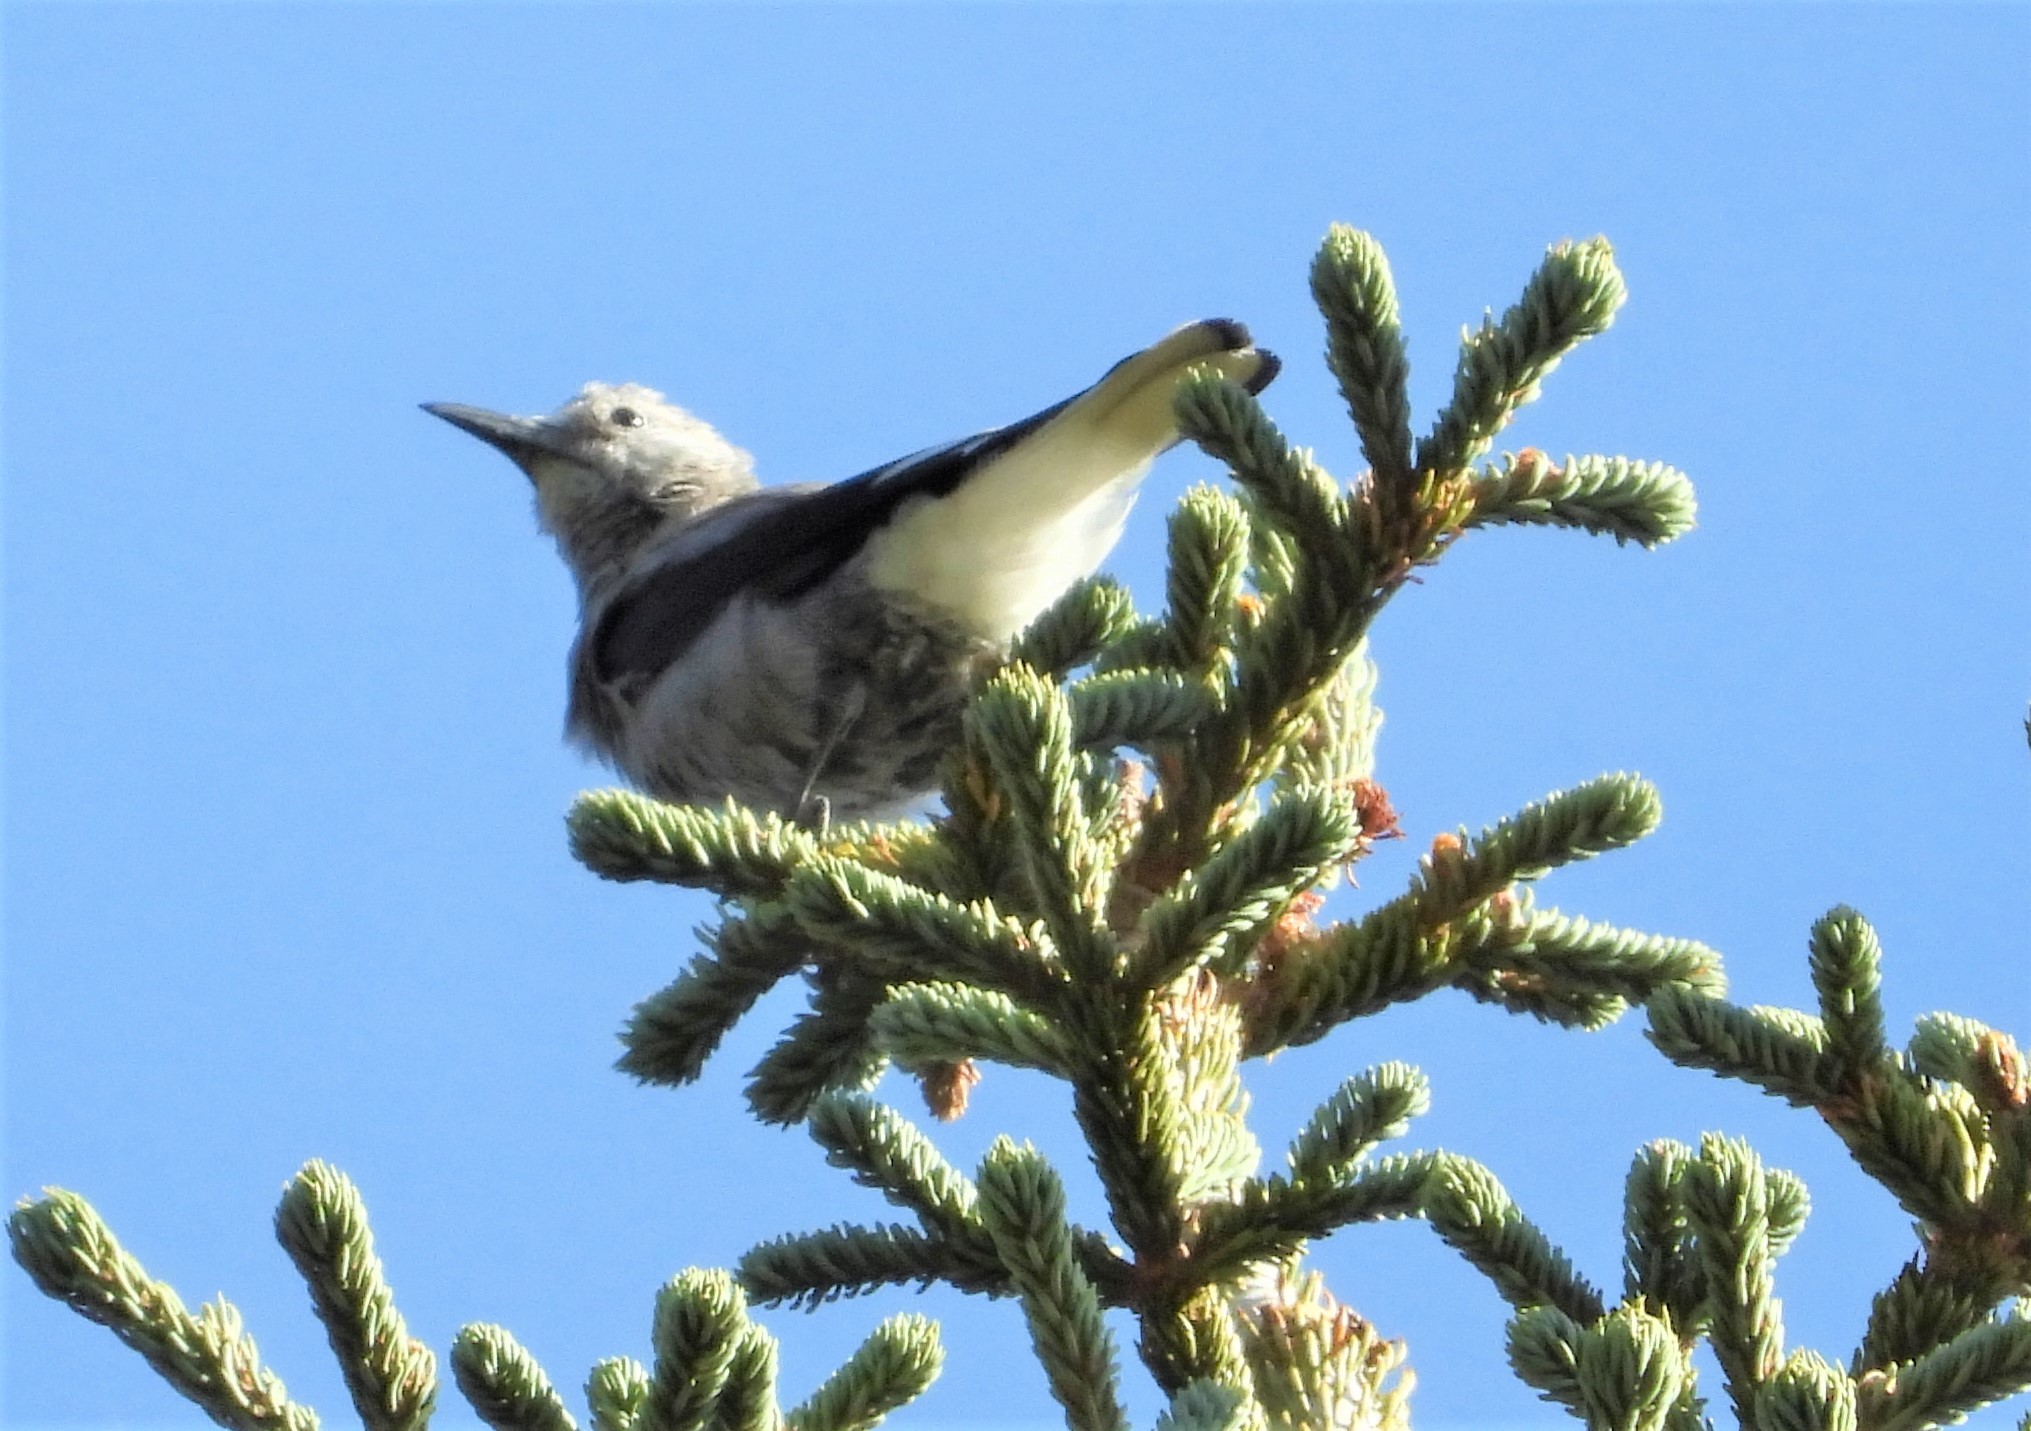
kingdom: Animalia
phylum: Chordata
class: Aves
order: Passeriformes
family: Corvidae
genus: Nucifraga
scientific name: Nucifraga columbiana
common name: Clark's nutcracker
